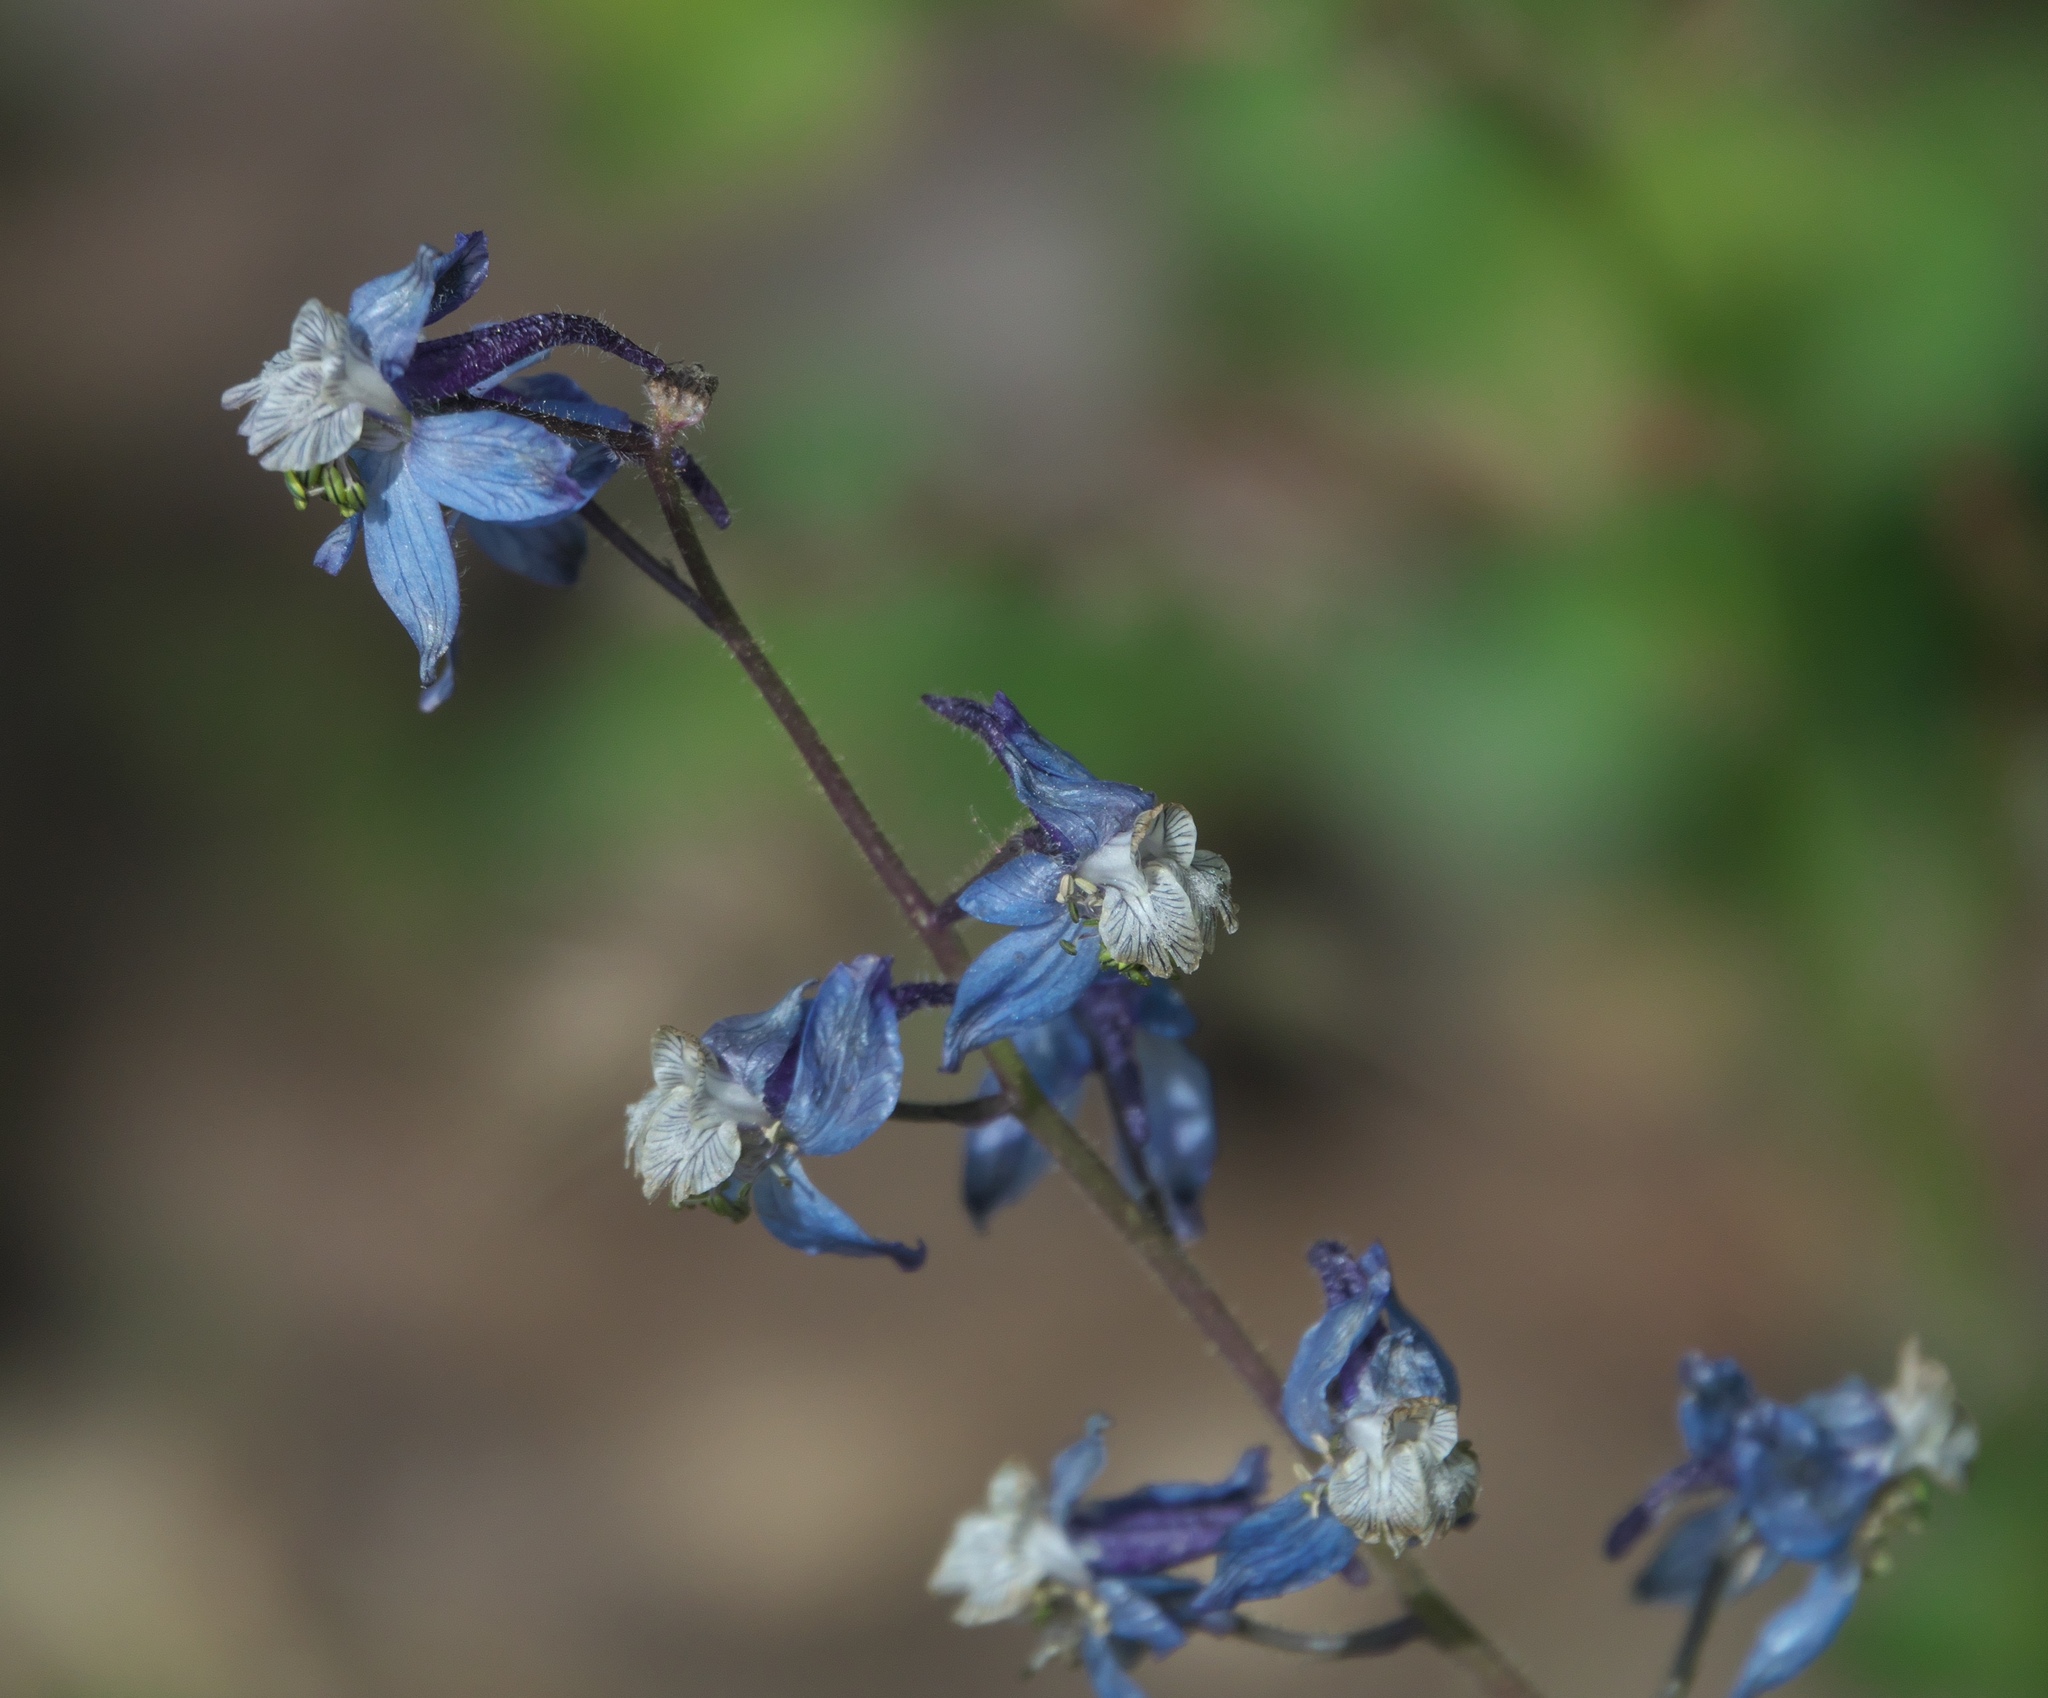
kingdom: Plantae
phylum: Tracheophyta
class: Magnoliopsida
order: Ranunculales
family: Ranunculaceae
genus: Delphinium
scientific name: Delphinium nuttallianum
